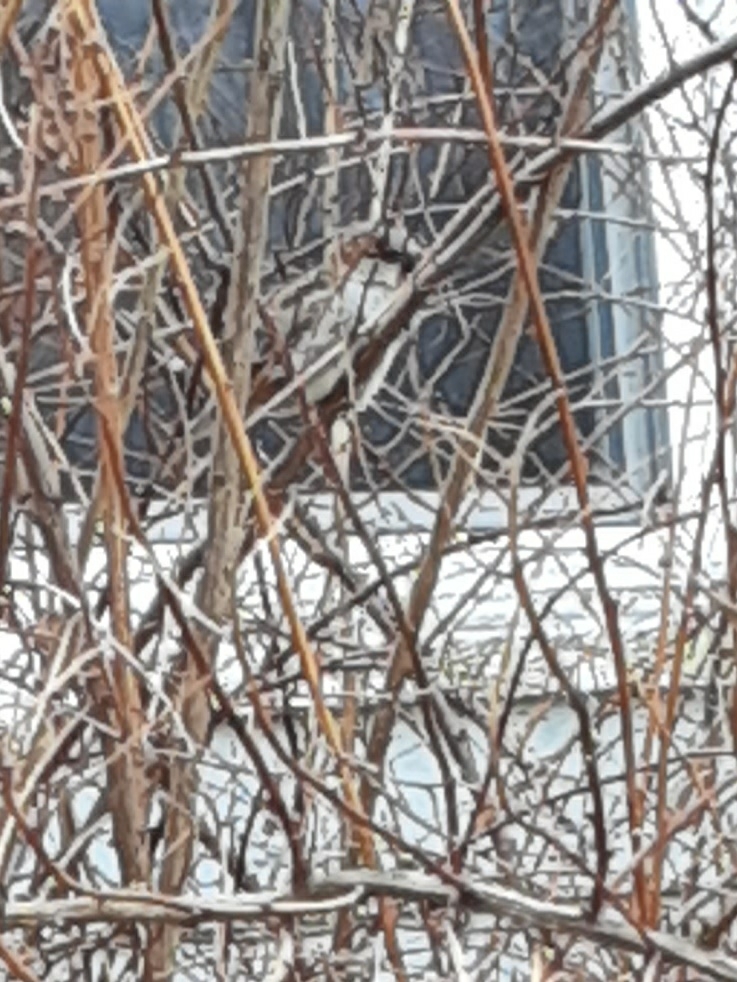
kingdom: Animalia
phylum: Chordata
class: Aves
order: Passeriformes
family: Passeridae
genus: Passer
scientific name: Passer domesticus
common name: House sparrow
